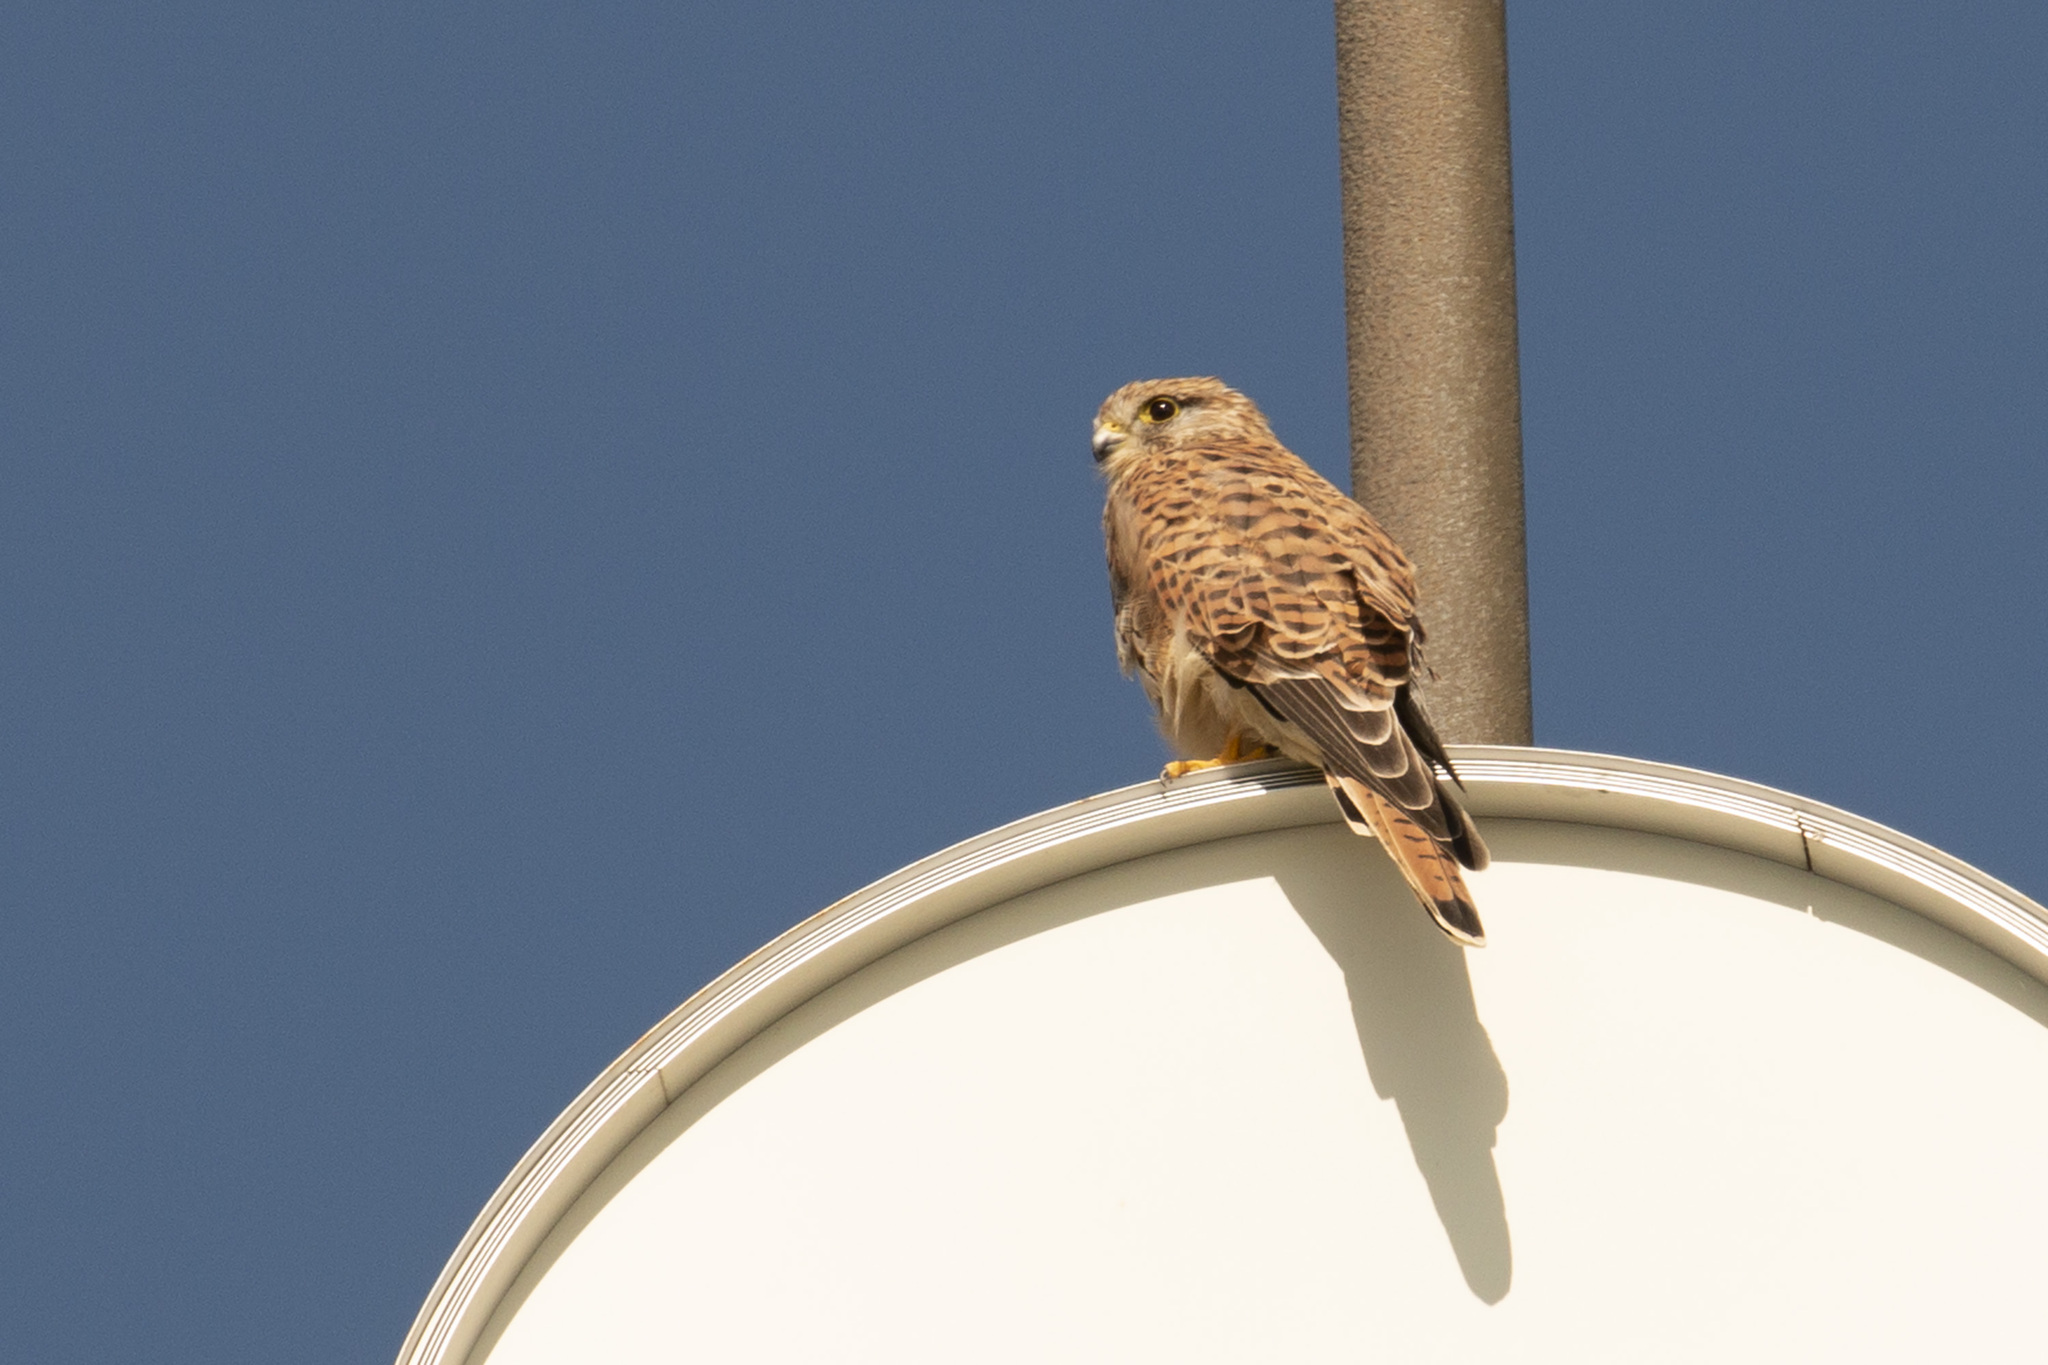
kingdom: Animalia
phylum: Chordata
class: Aves
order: Falconiformes
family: Falconidae
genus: Falco
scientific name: Falco tinnunculus
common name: Common kestrel
